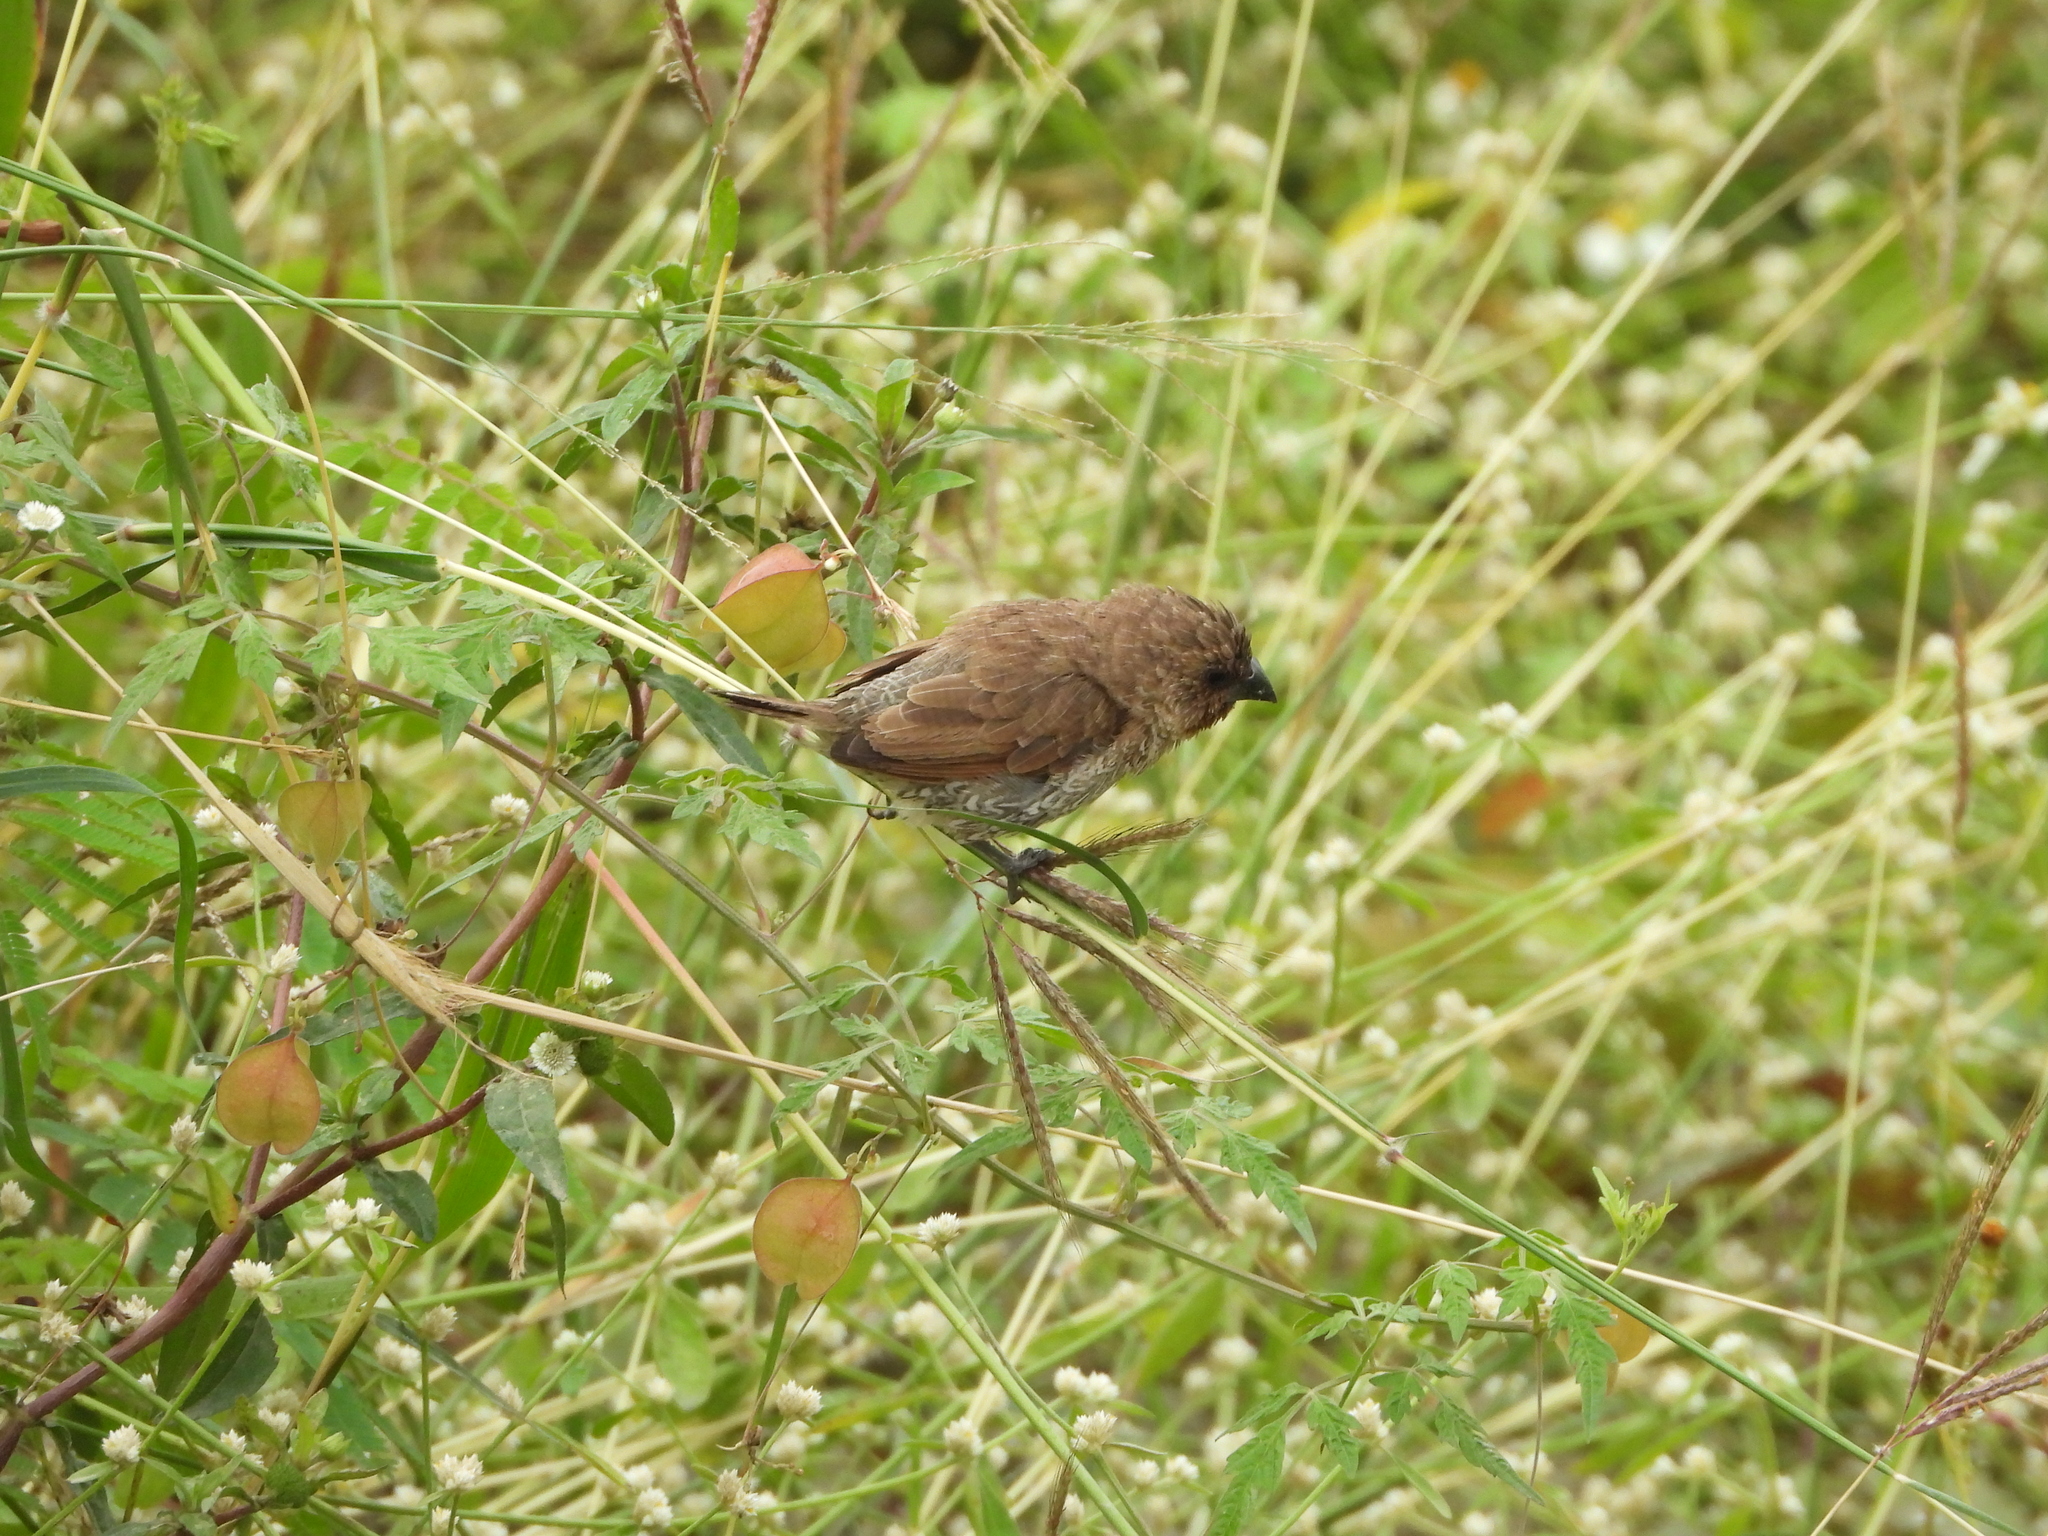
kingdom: Animalia
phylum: Chordata
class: Aves
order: Passeriformes
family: Estrildidae
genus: Lonchura
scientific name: Lonchura punctulata
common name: Scaly-breasted munia
